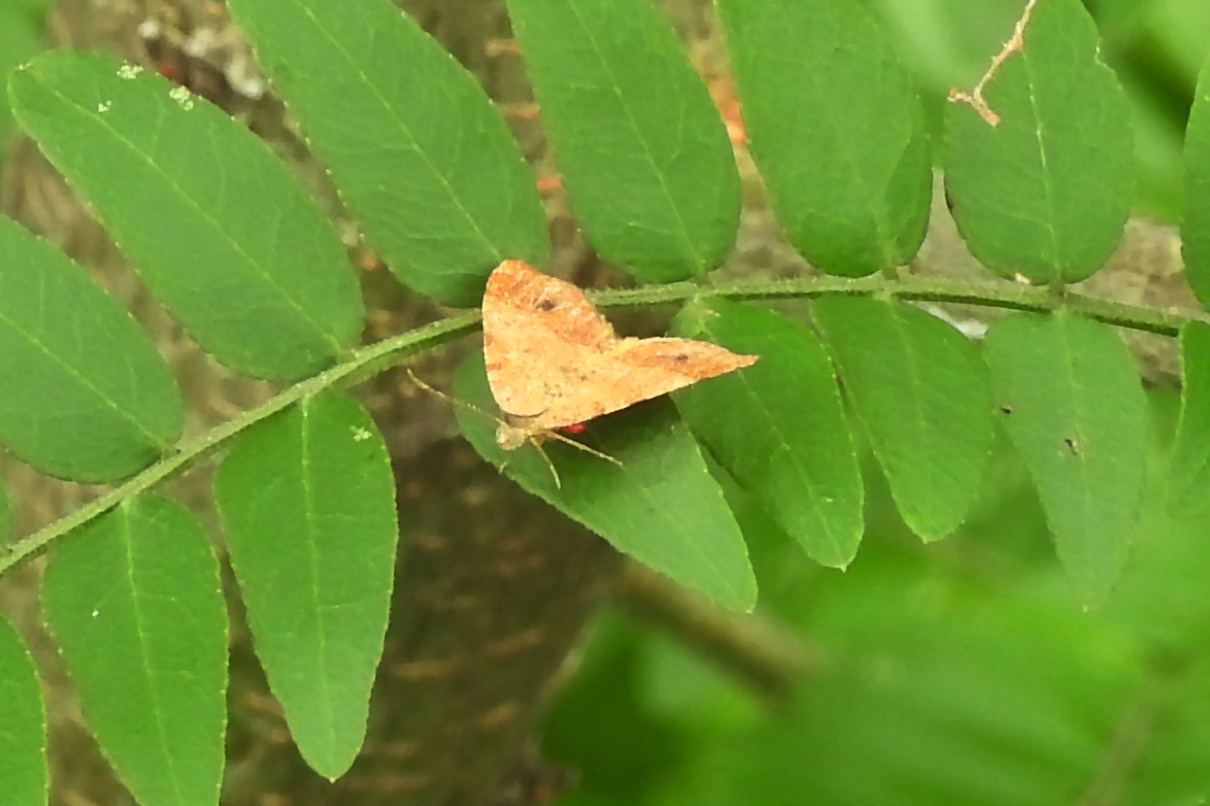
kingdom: Animalia
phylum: Arthropoda
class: Insecta
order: Lepidoptera
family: Geometridae
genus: Mellilla
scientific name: Mellilla xanthometata
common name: Orange wing moth
